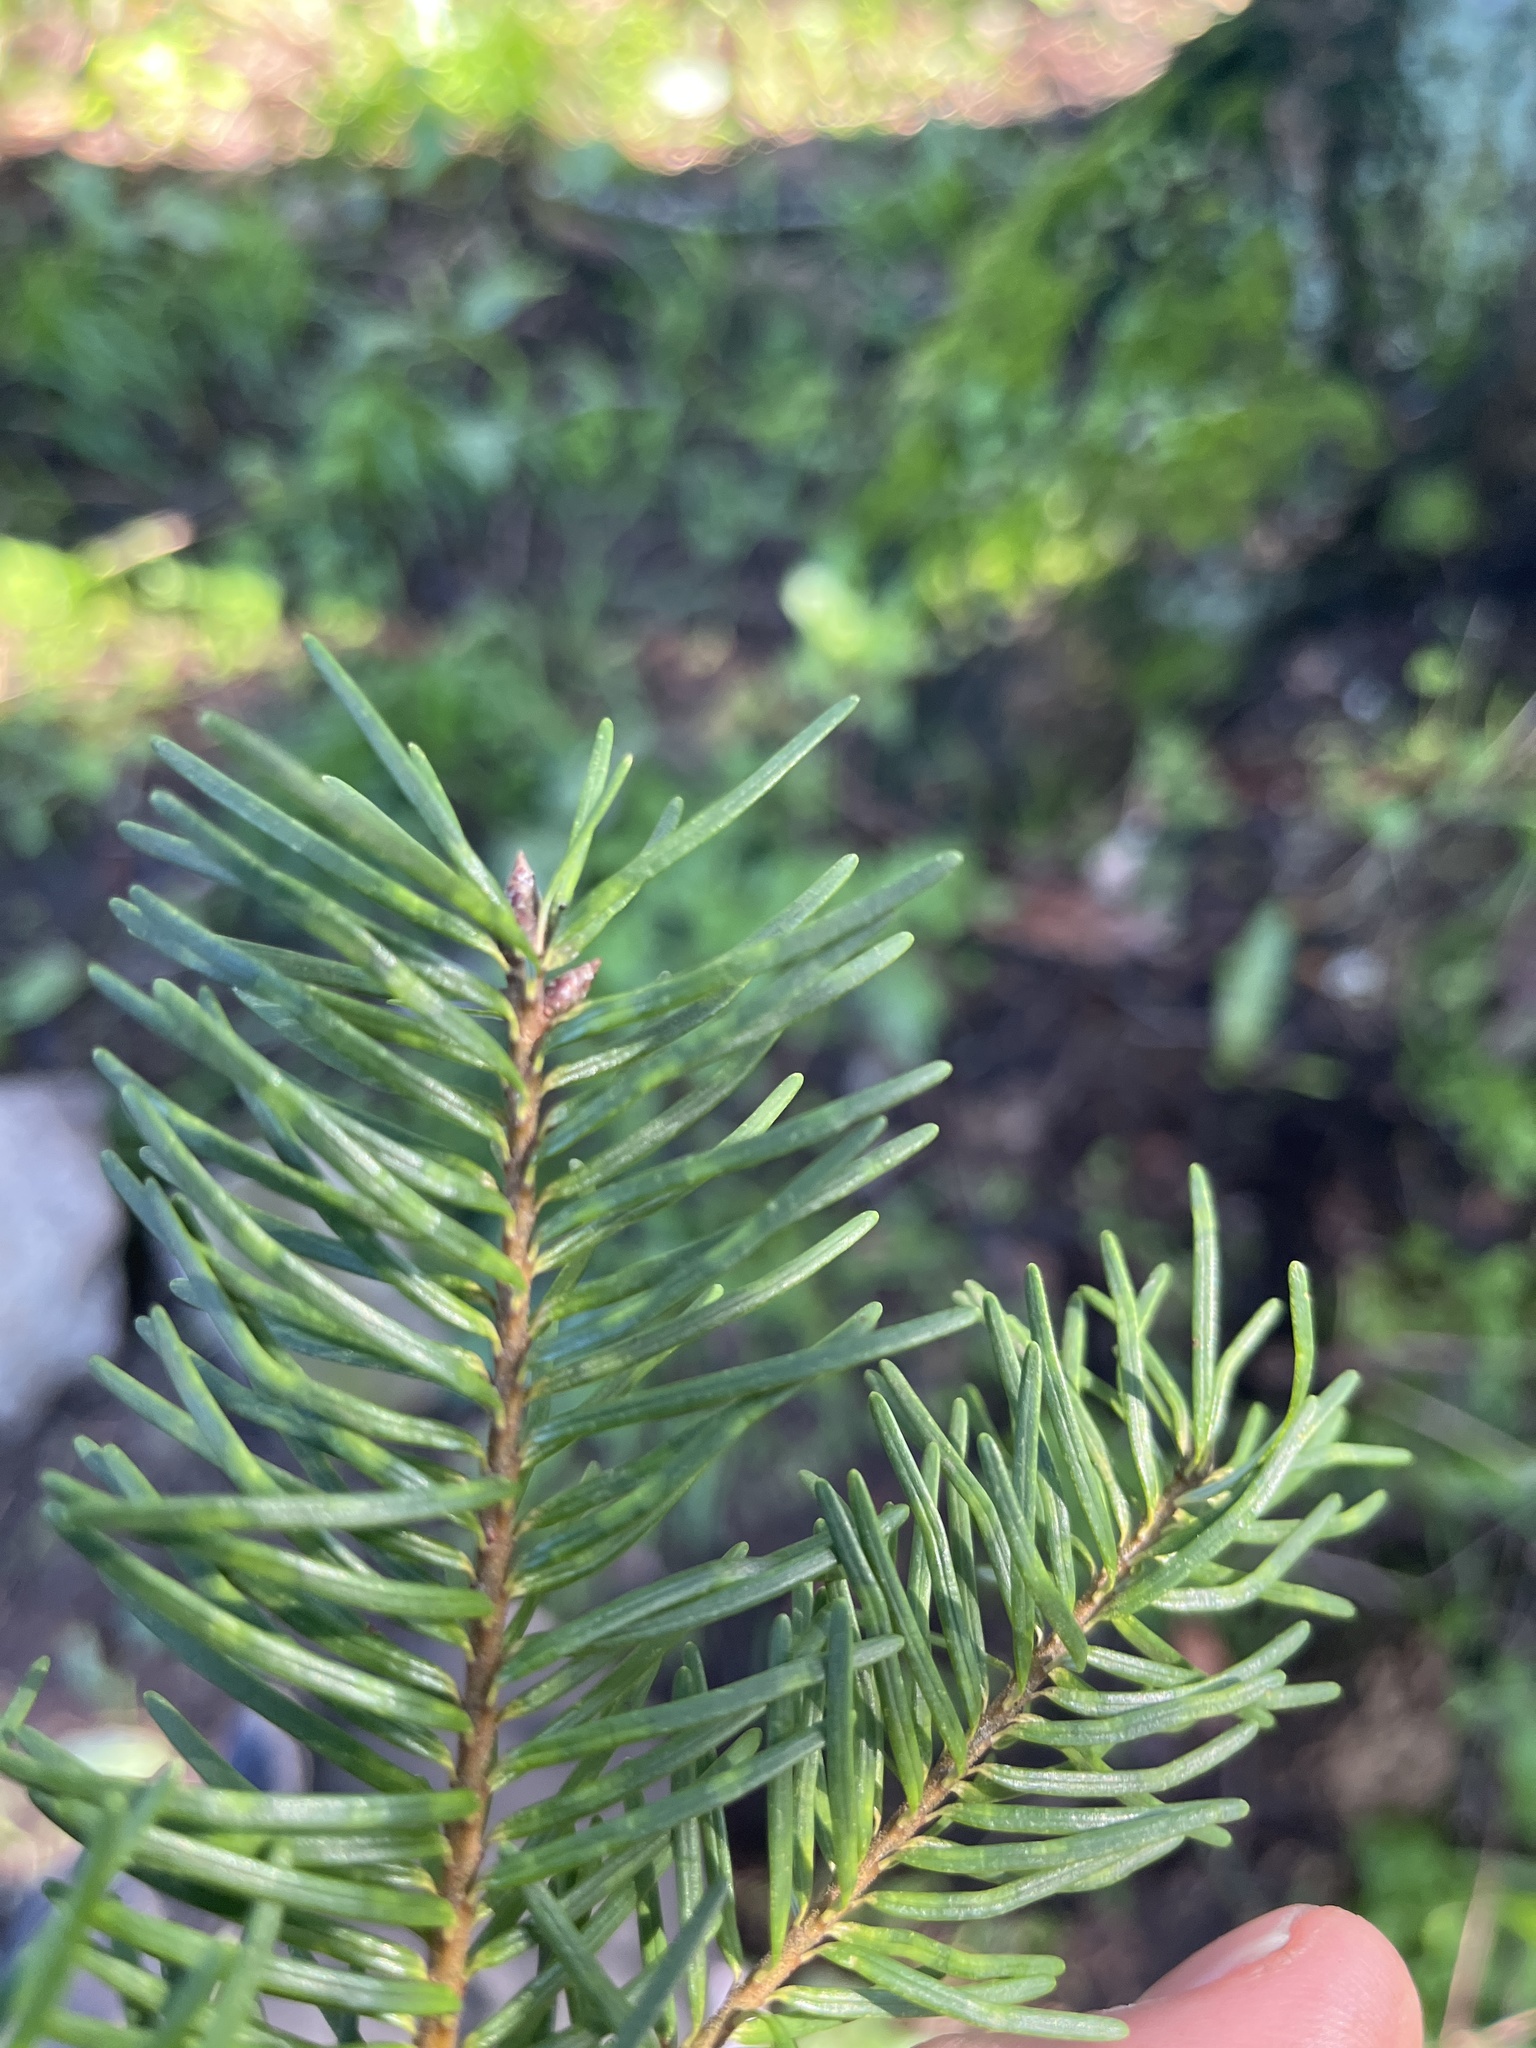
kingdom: Plantae
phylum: Tracheophyta
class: Pinopsida
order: Pinales
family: Pinaceae
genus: Pseudotsuga
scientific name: Pseudotsuga menziesii
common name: Douglas fir
